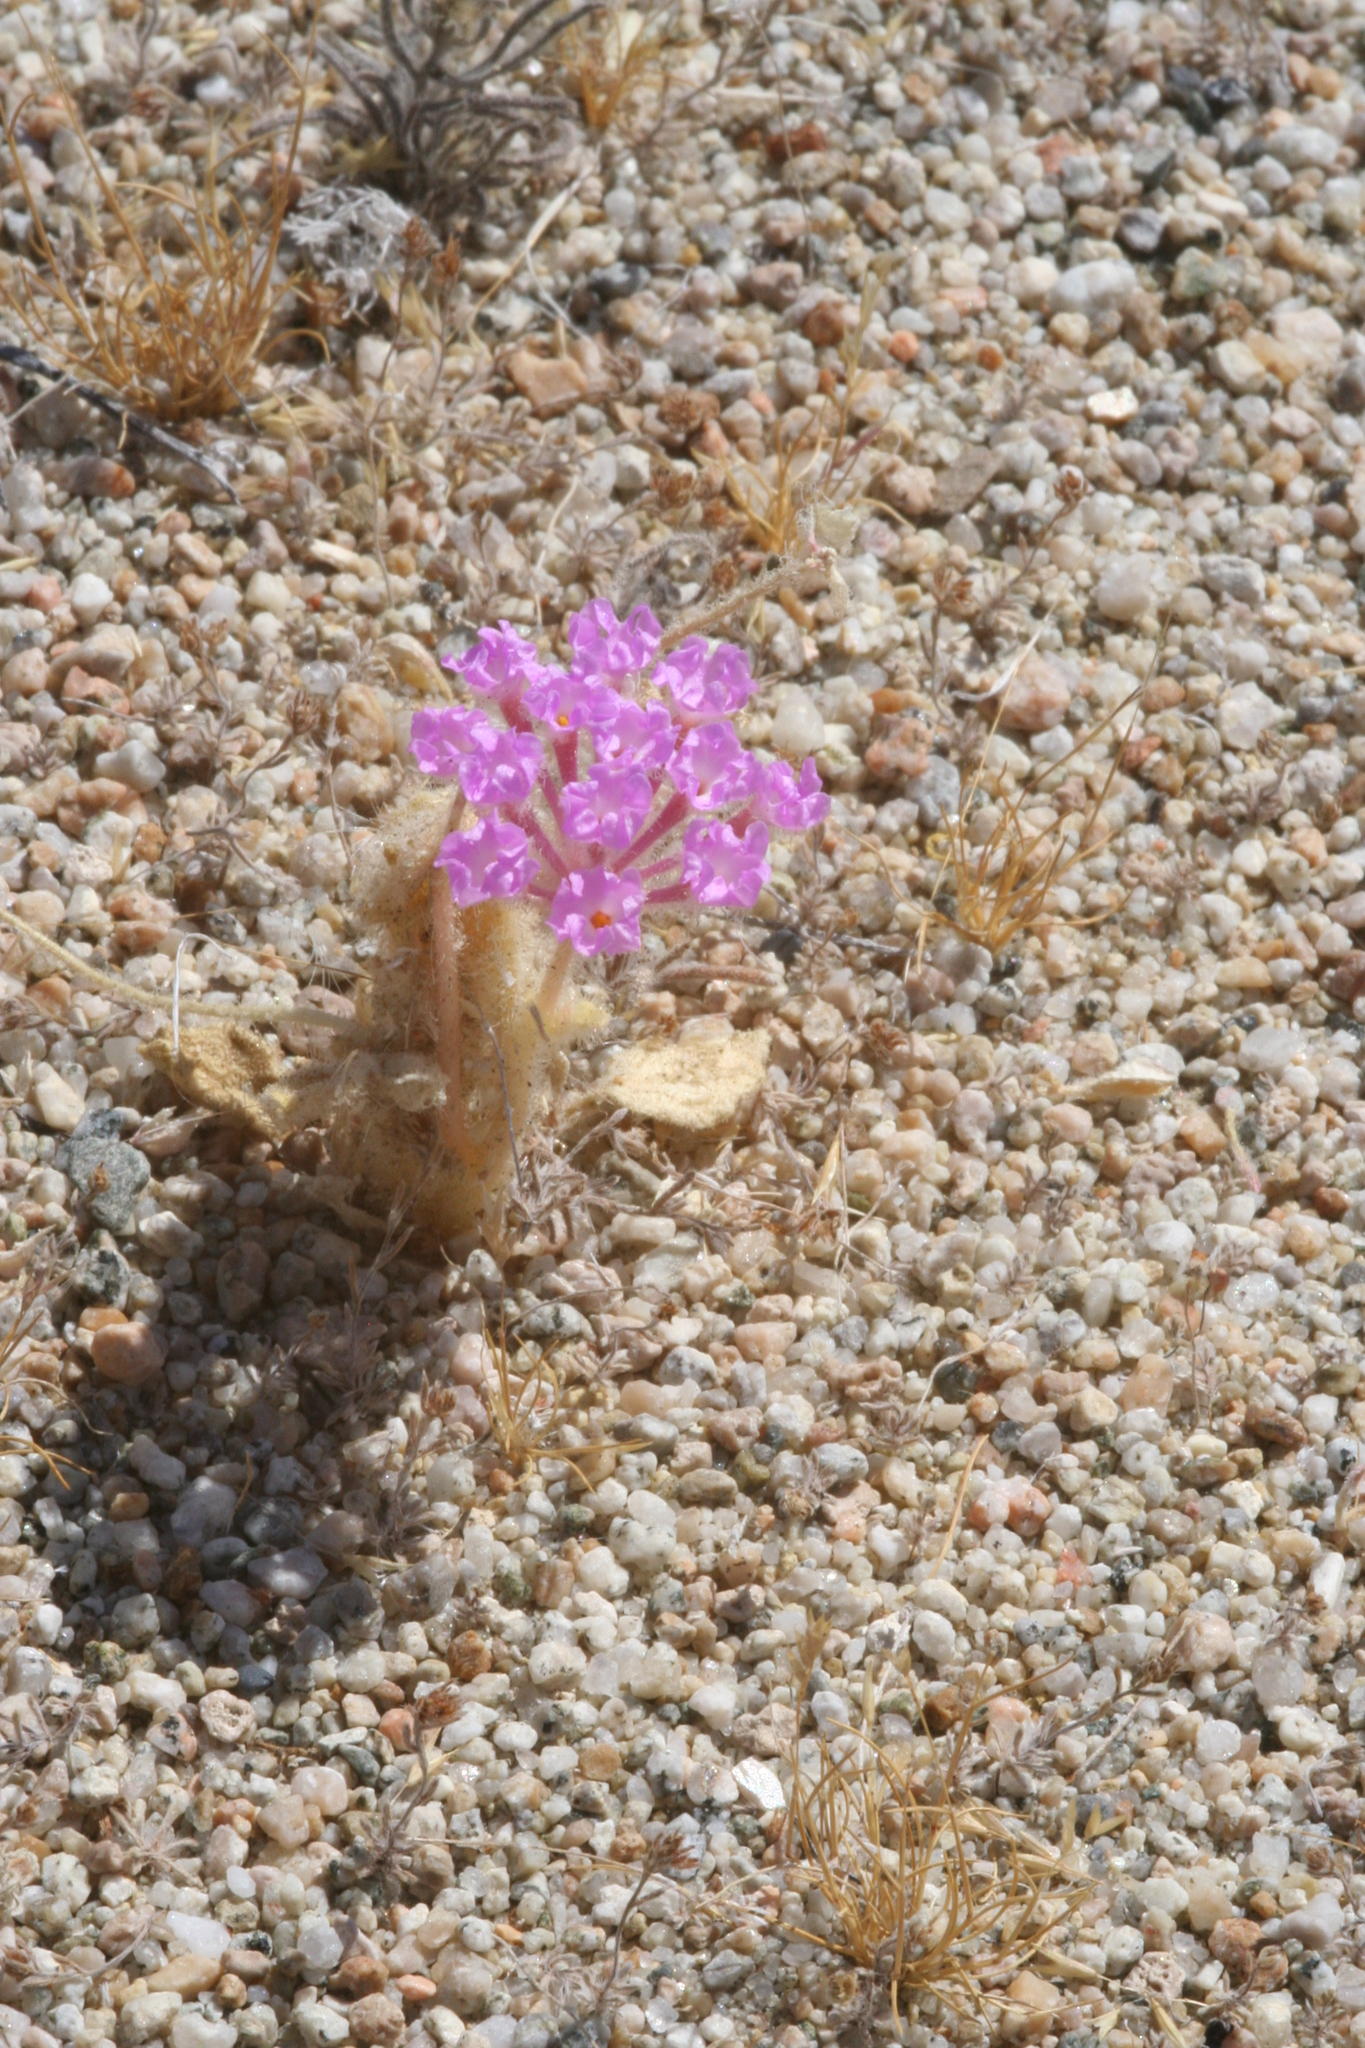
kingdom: Plantae
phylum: Tracheophyta
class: Magnoliopsida
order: Caryophyllales
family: Nyctaginaceae
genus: Abronia
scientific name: Abronia
